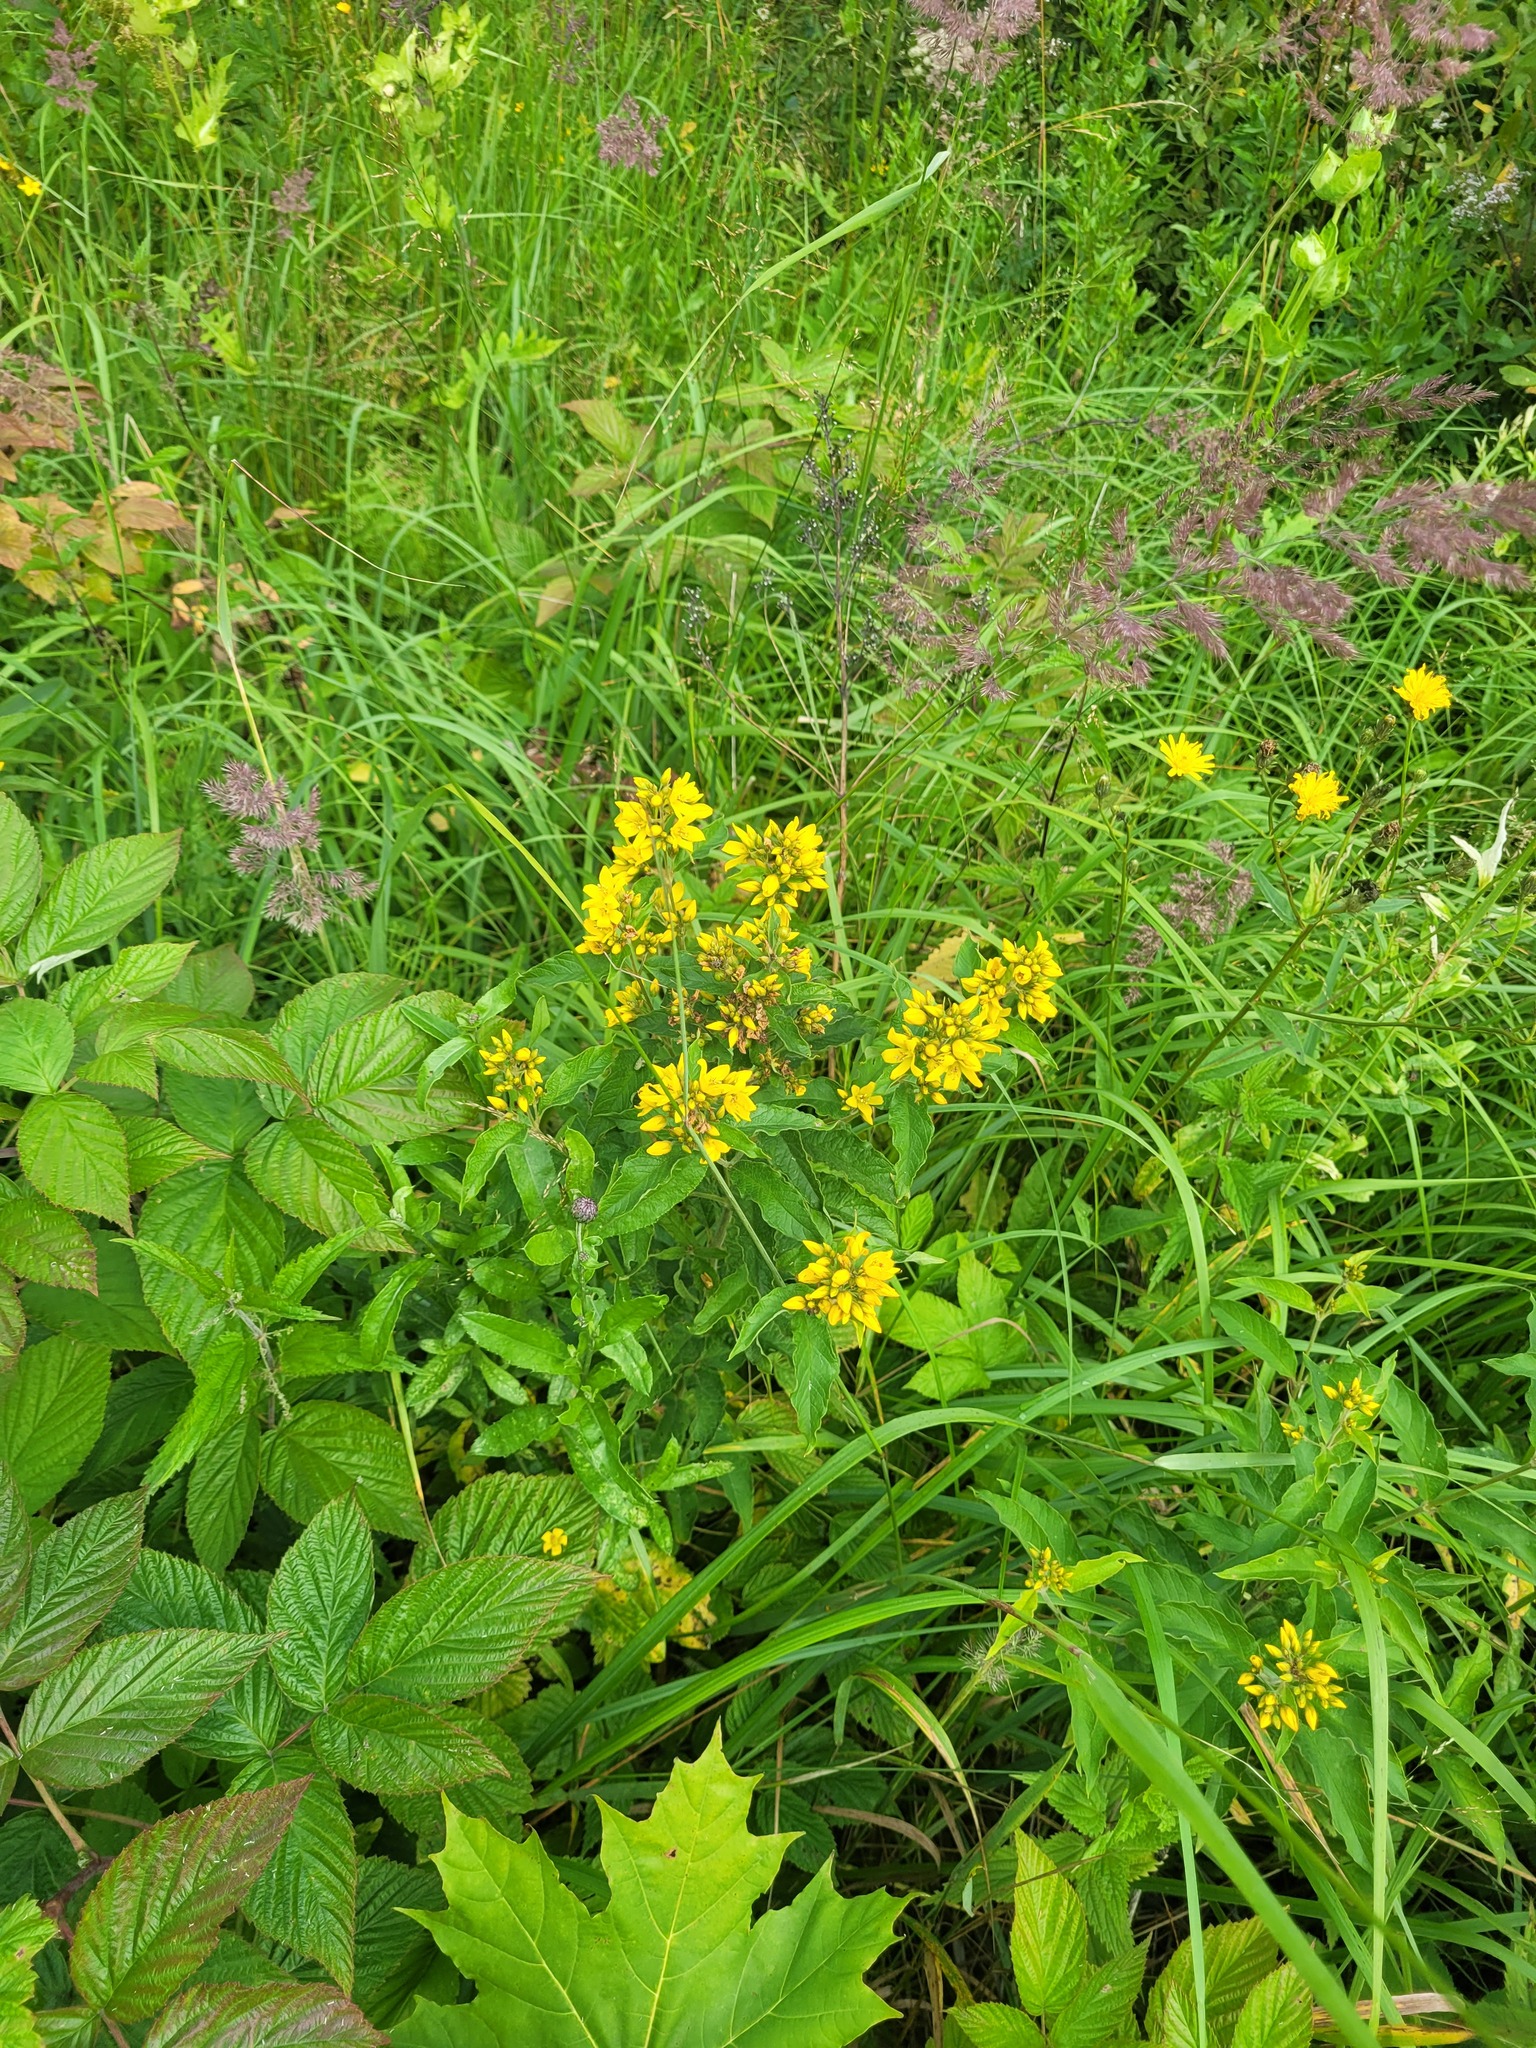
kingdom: Plantae
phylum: Tracheophyta
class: Magnoliopsida
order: Ericales
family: Primulaceae
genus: Lysimachia
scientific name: Lysimachia vulgaris
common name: Yellow loosestrife
